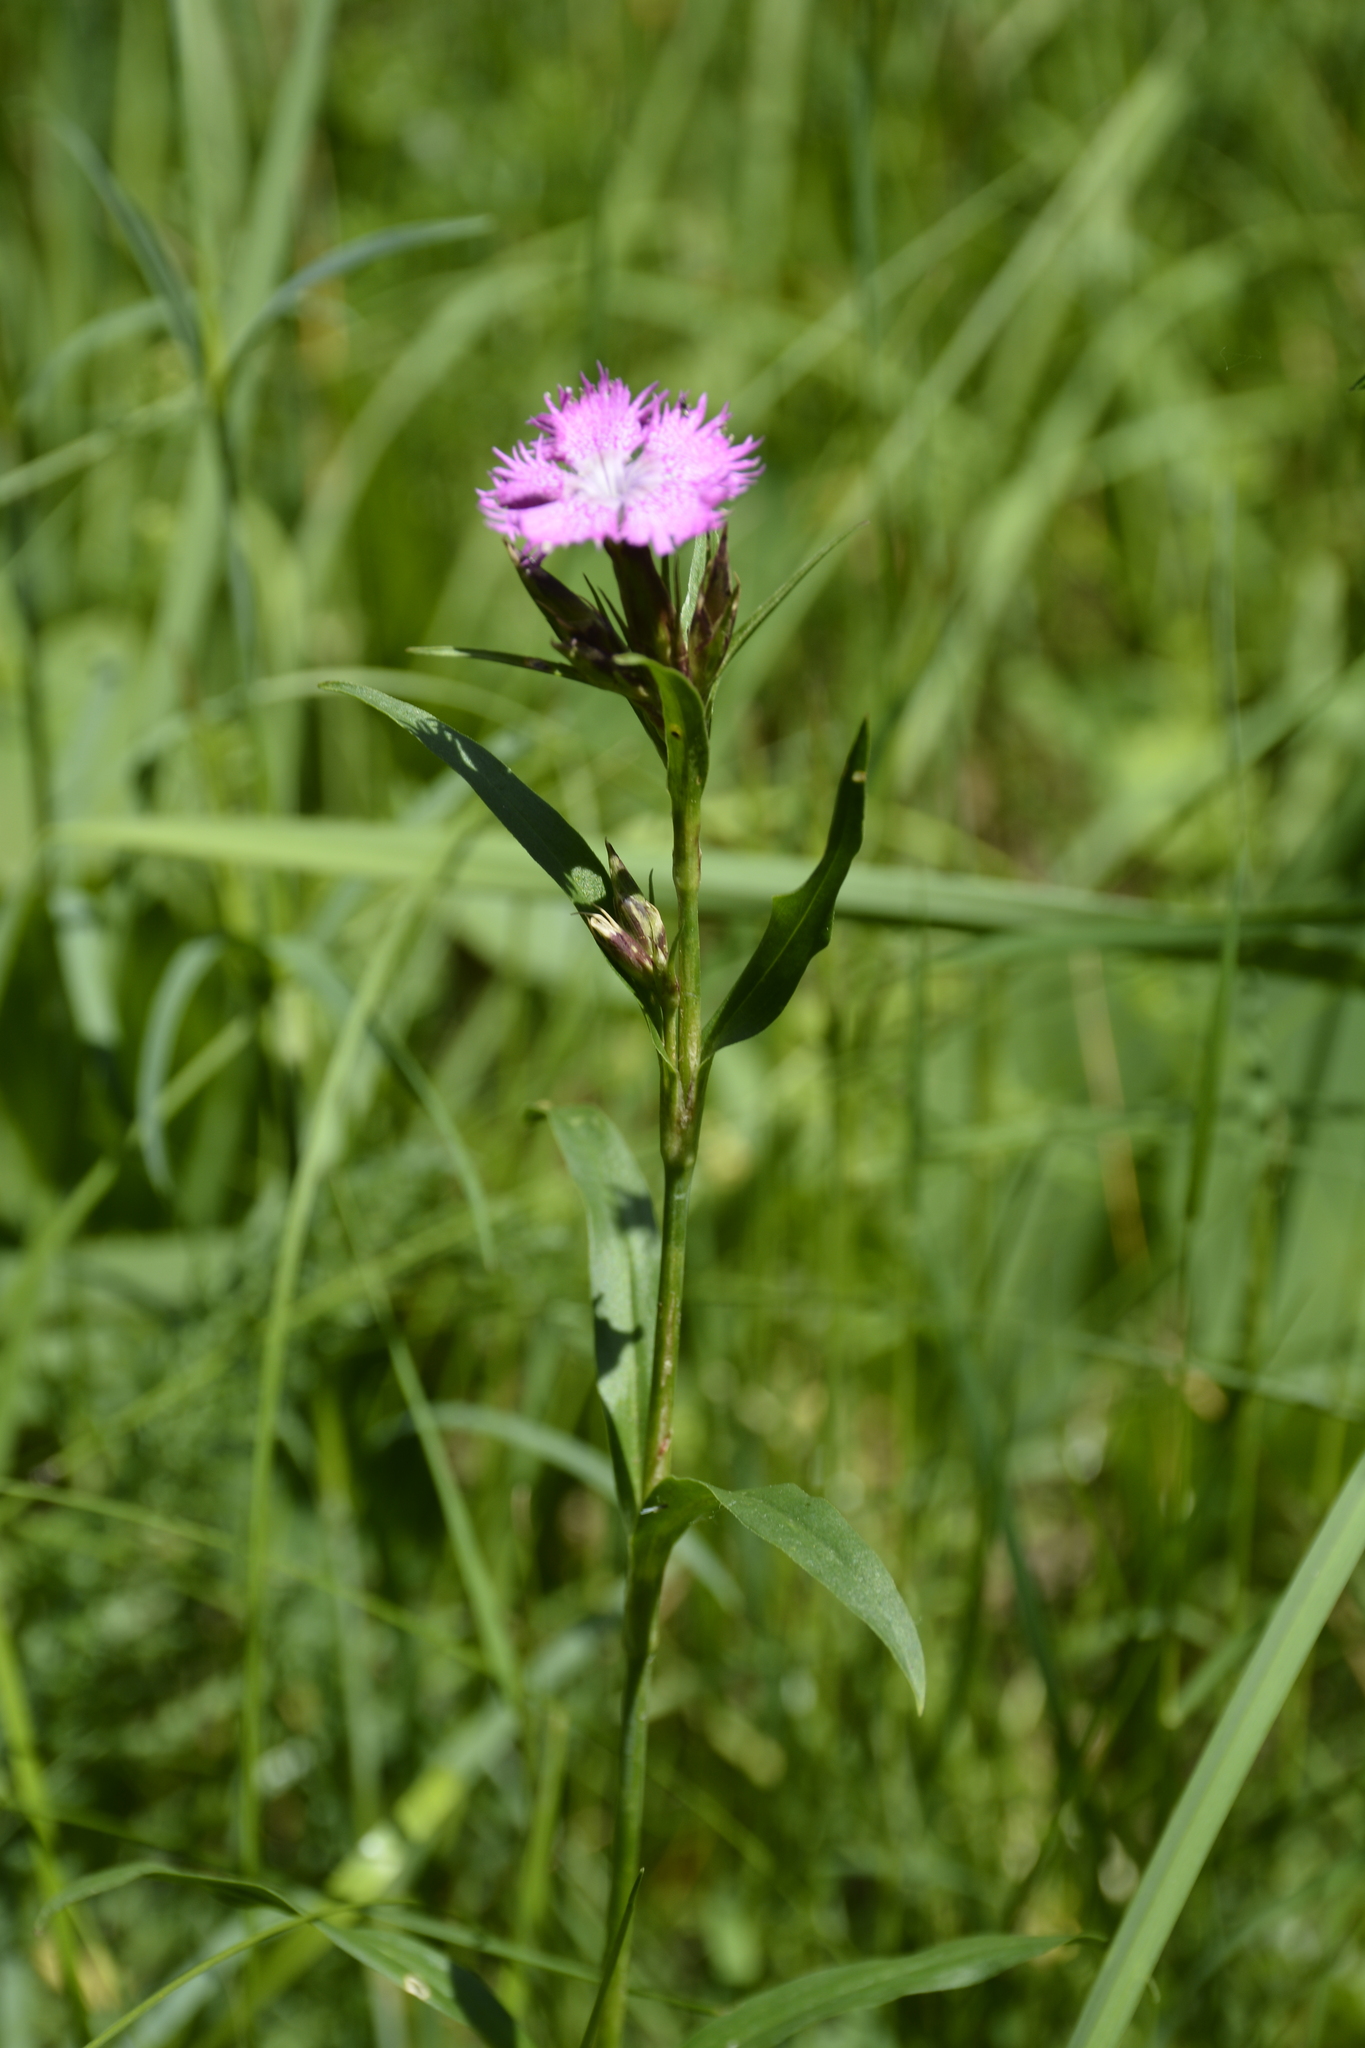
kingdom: Plantae
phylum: Tracheophyta
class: Magnoliopsida
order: Caryophyllales
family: Caryophyllaceae
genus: Dianthus
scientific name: Dianthus barbatus
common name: Sweet-william
